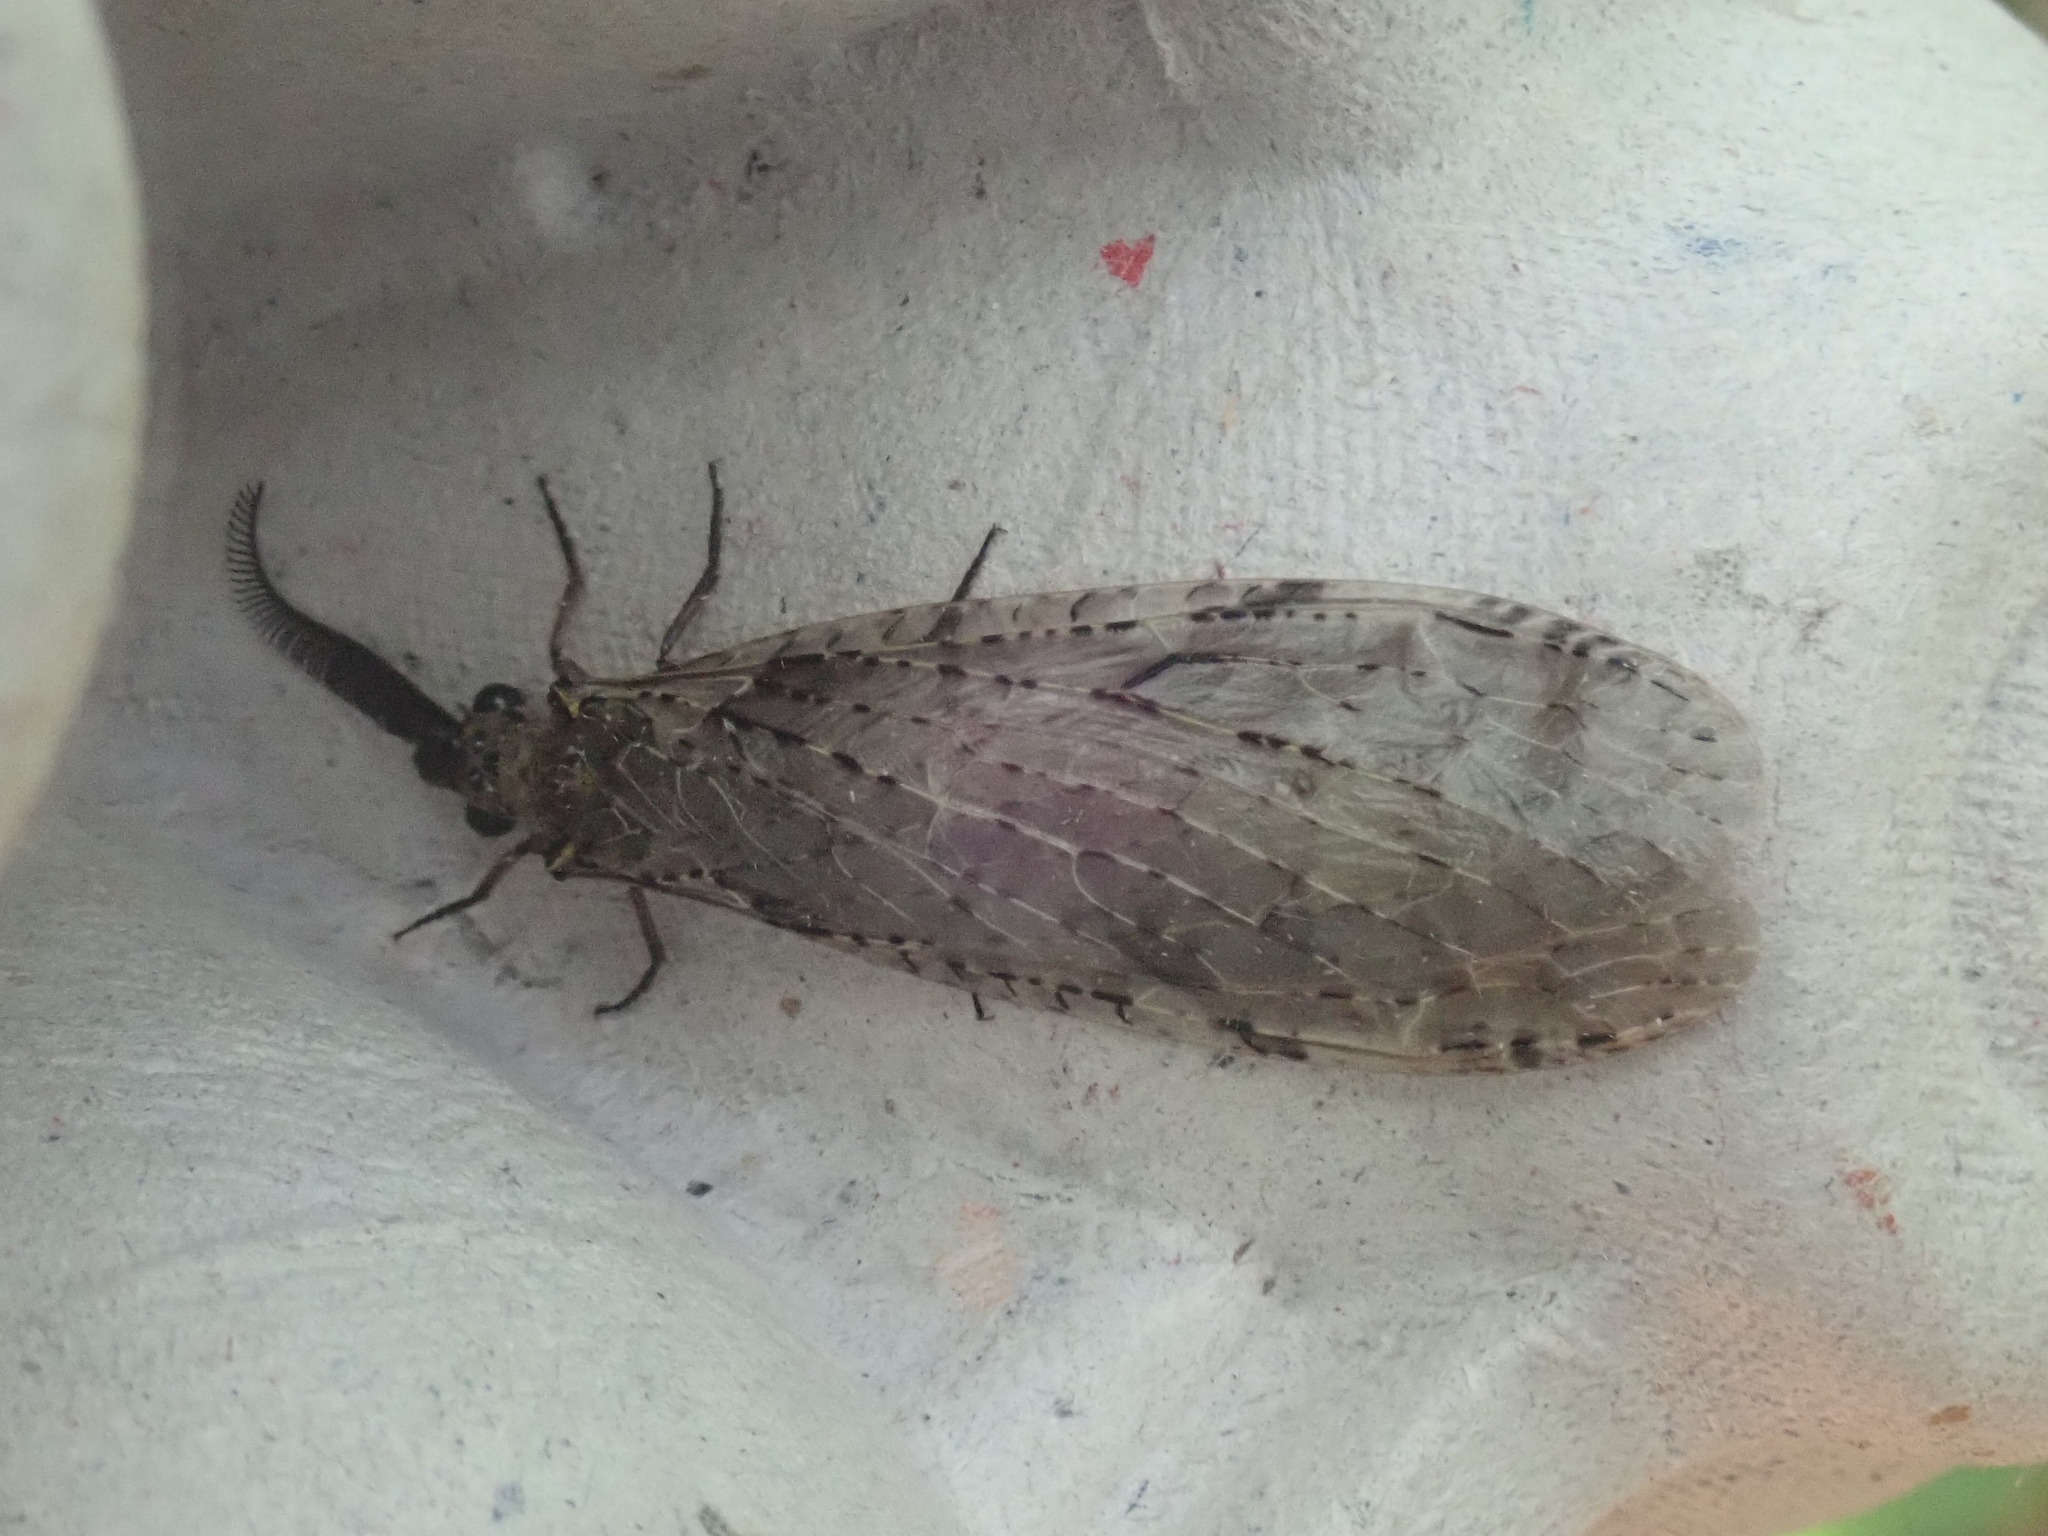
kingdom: Animalia
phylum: Arthropoda
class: Insecta
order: Megaloptera
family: Corydalidae
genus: Chauliodes
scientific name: Chauliodes rastricornis
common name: Spring fishfly
